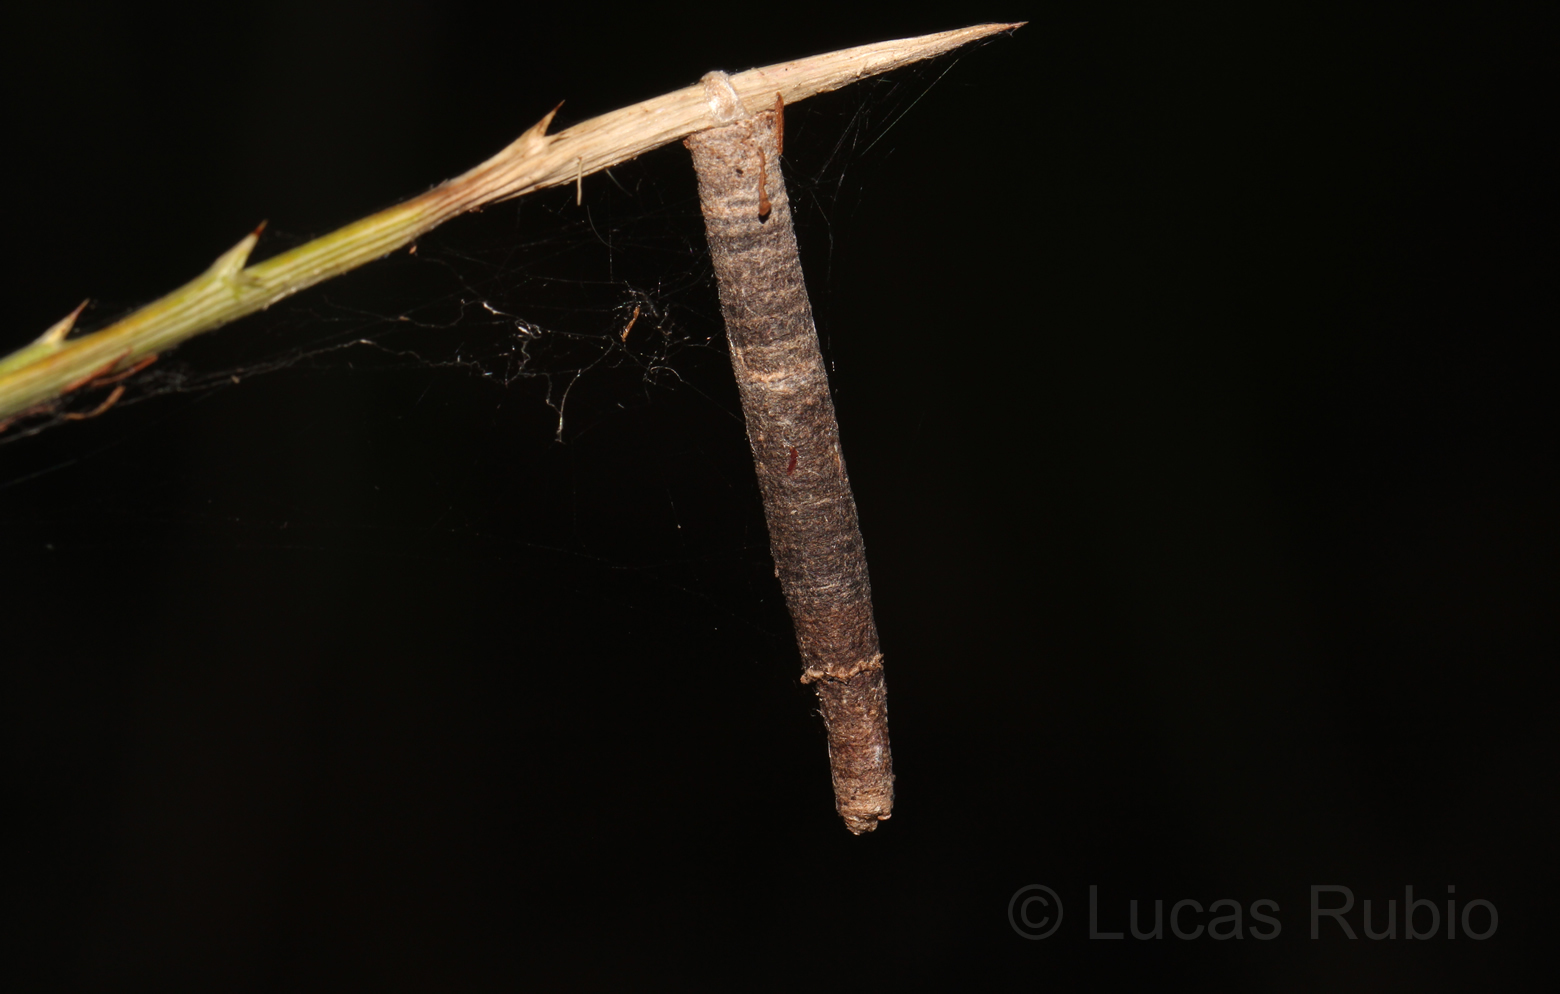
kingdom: Animalia
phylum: Arthropoda
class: Insecta
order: Lepidoptera
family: Psychidae
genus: Oiketicus
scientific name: Oiketicus geyeri
